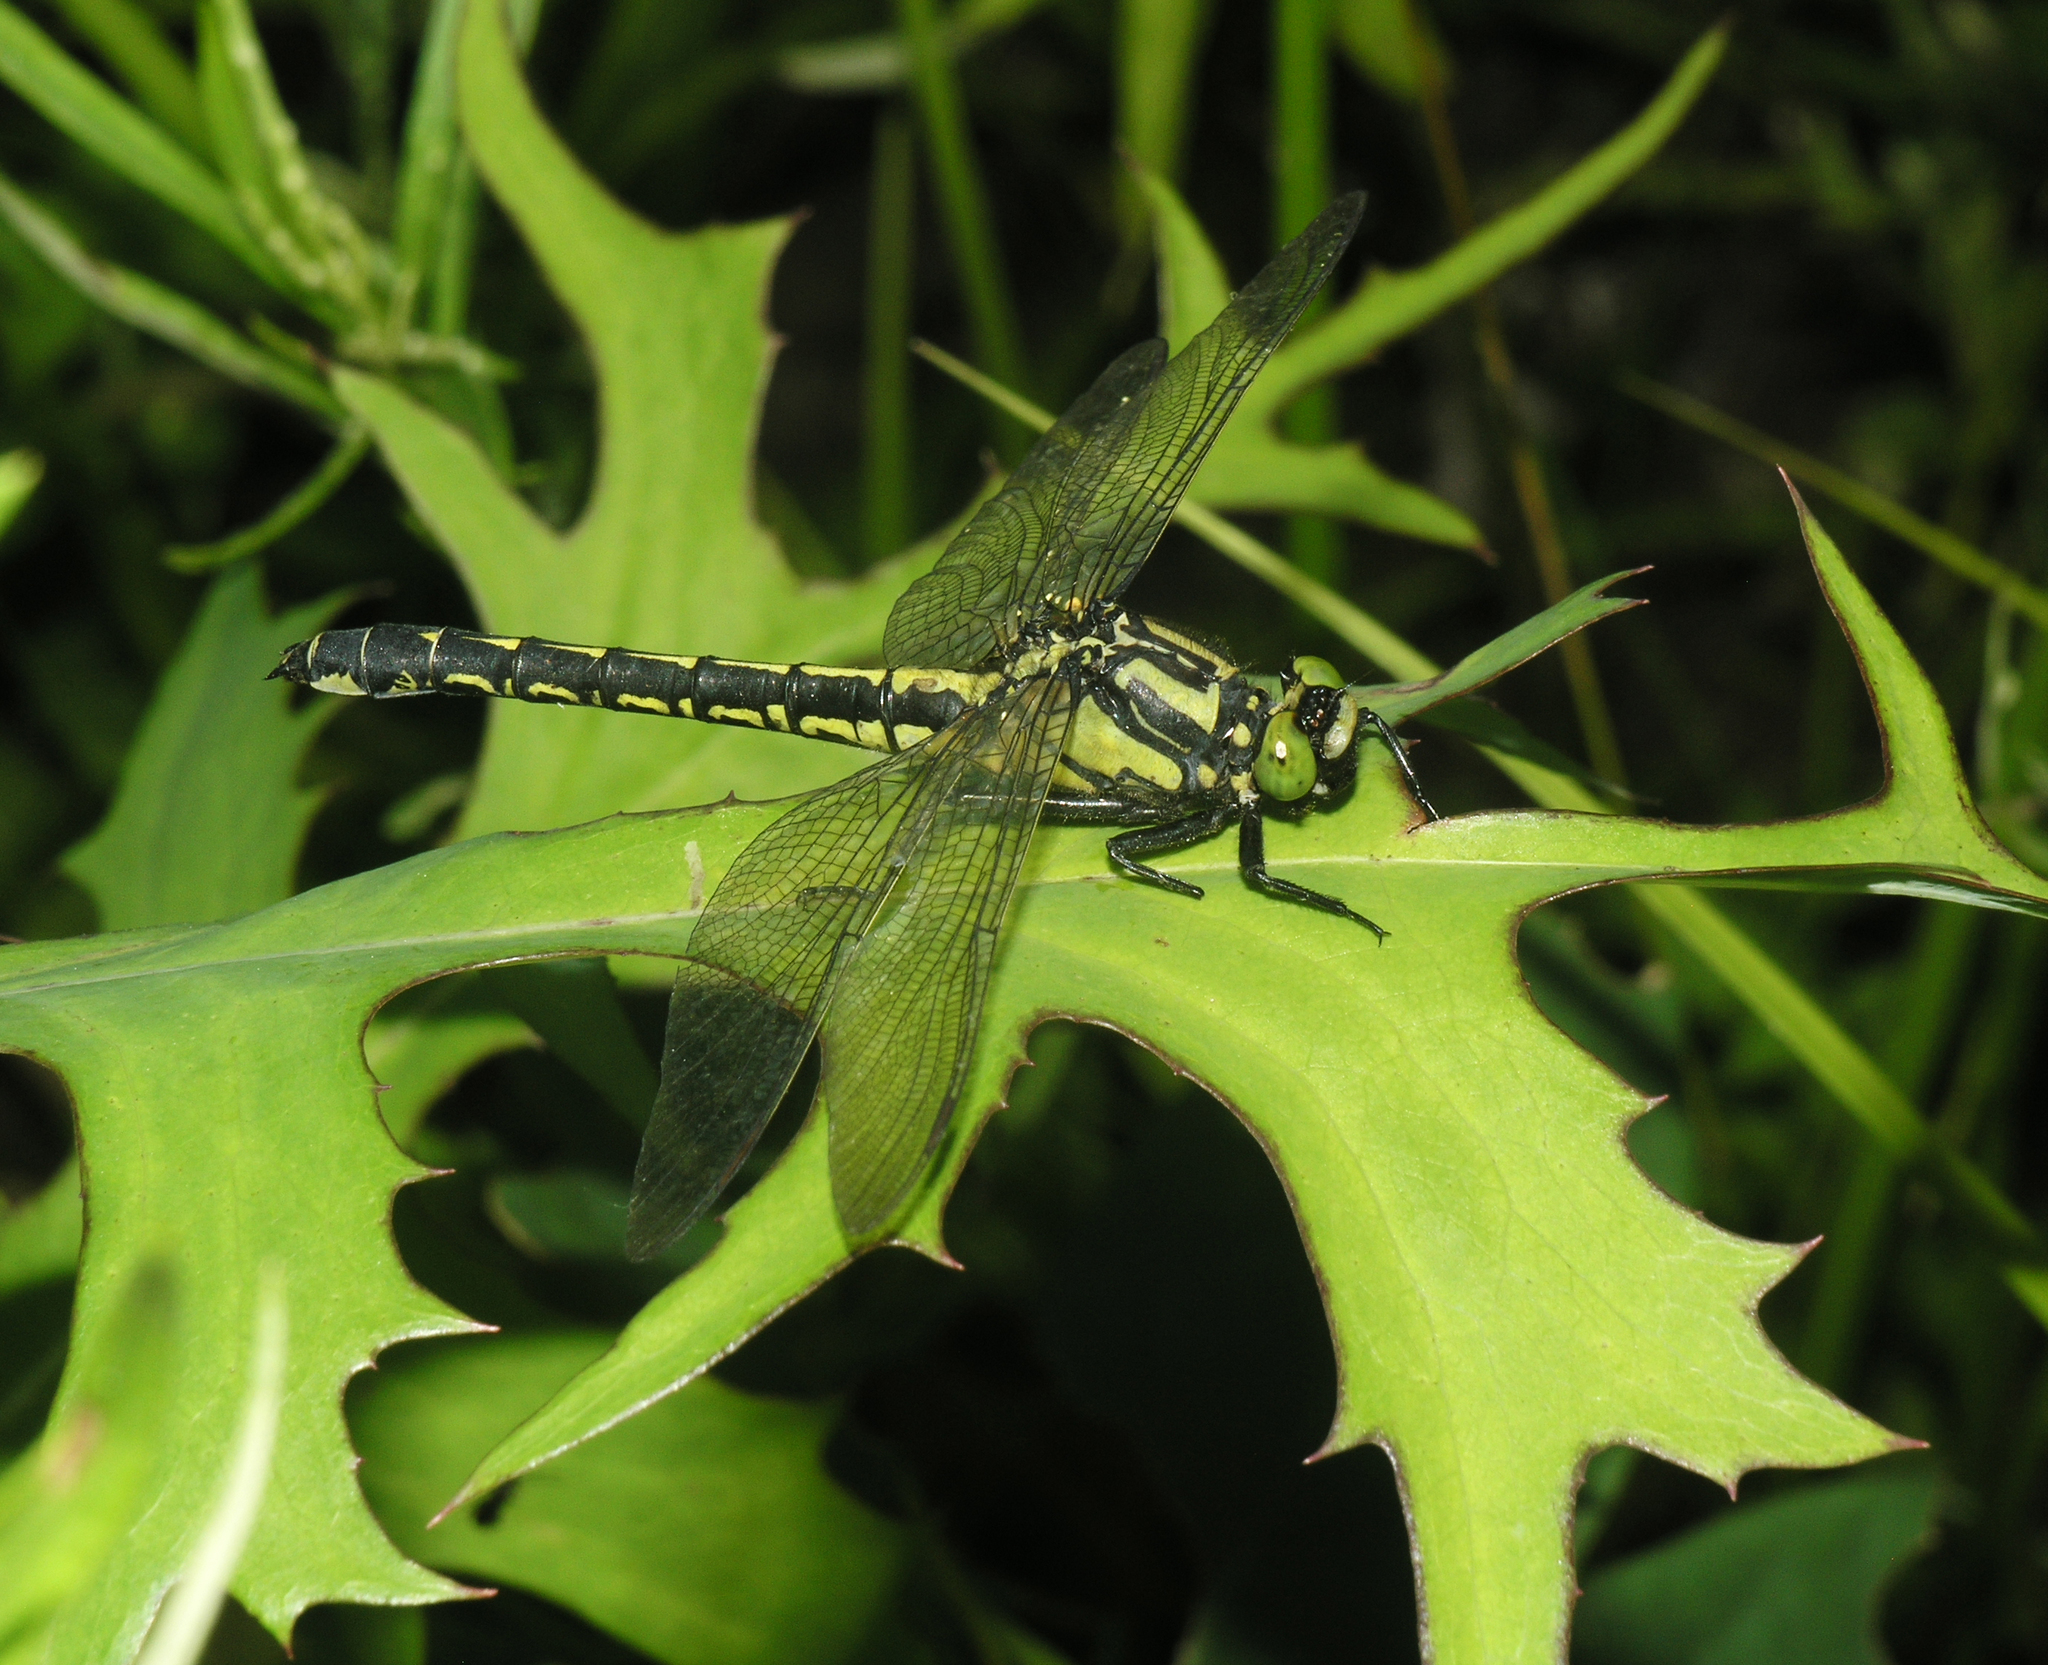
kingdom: Animalia
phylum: Arthropoda
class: Insecta
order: Odonata
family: Gomphidae
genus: Shaogomphus
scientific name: Shaogomphus postocularis
